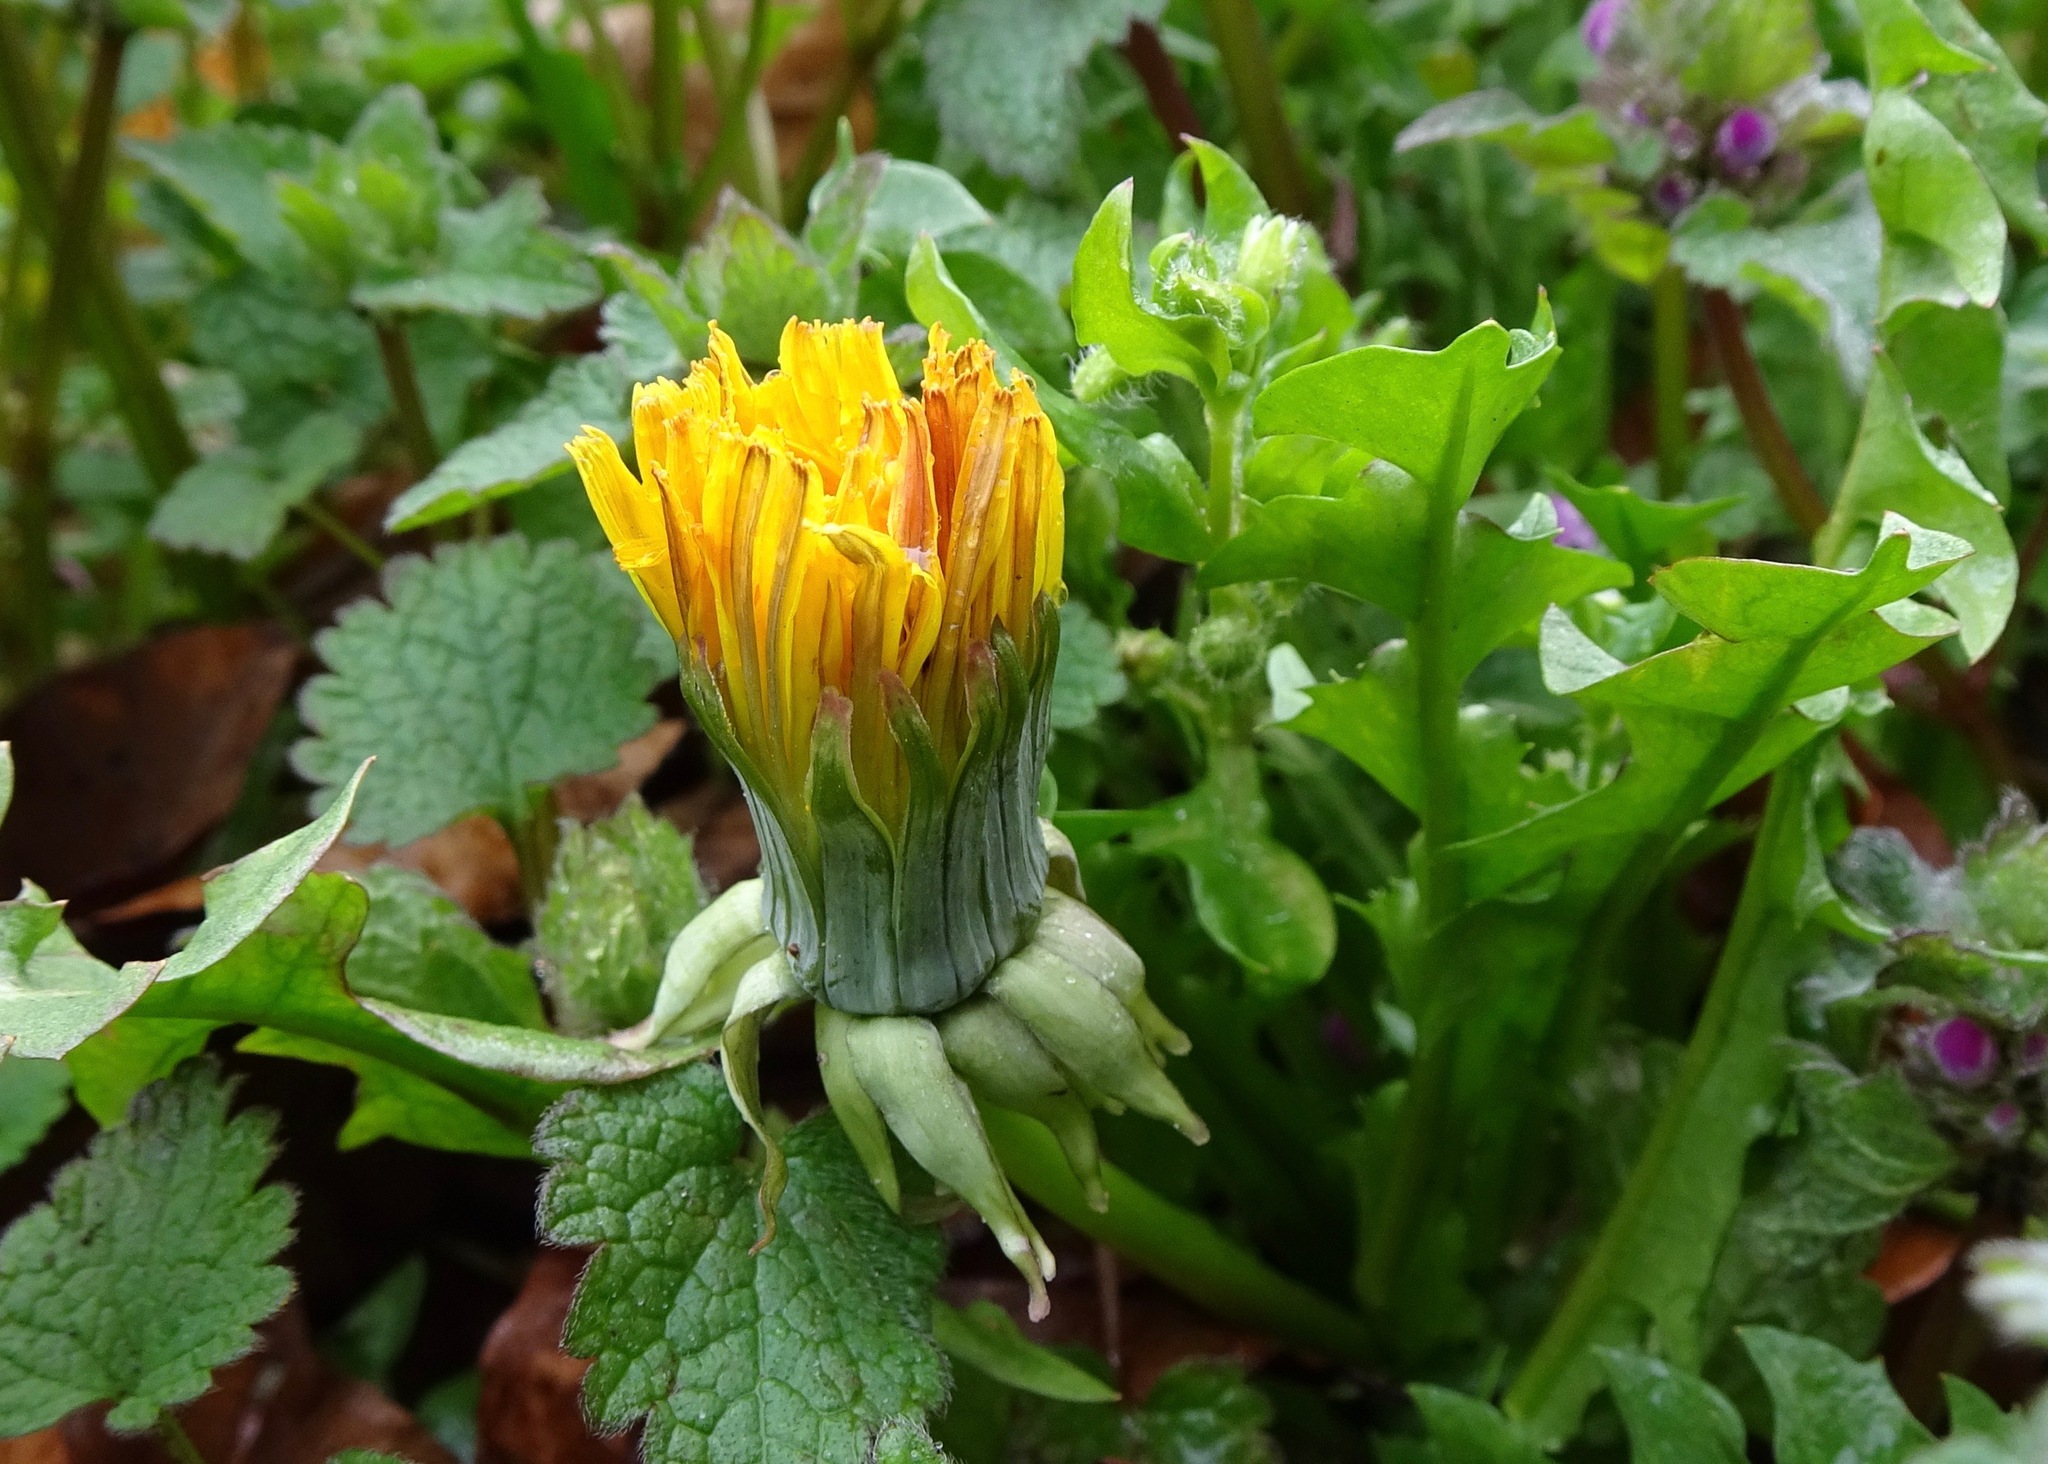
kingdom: Plantae
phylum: Tracheophyta
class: Magnoliopsida
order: Asterales
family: Asteraceae
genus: Taraxacum
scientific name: Taraxacum officinale
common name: Common dandelion
